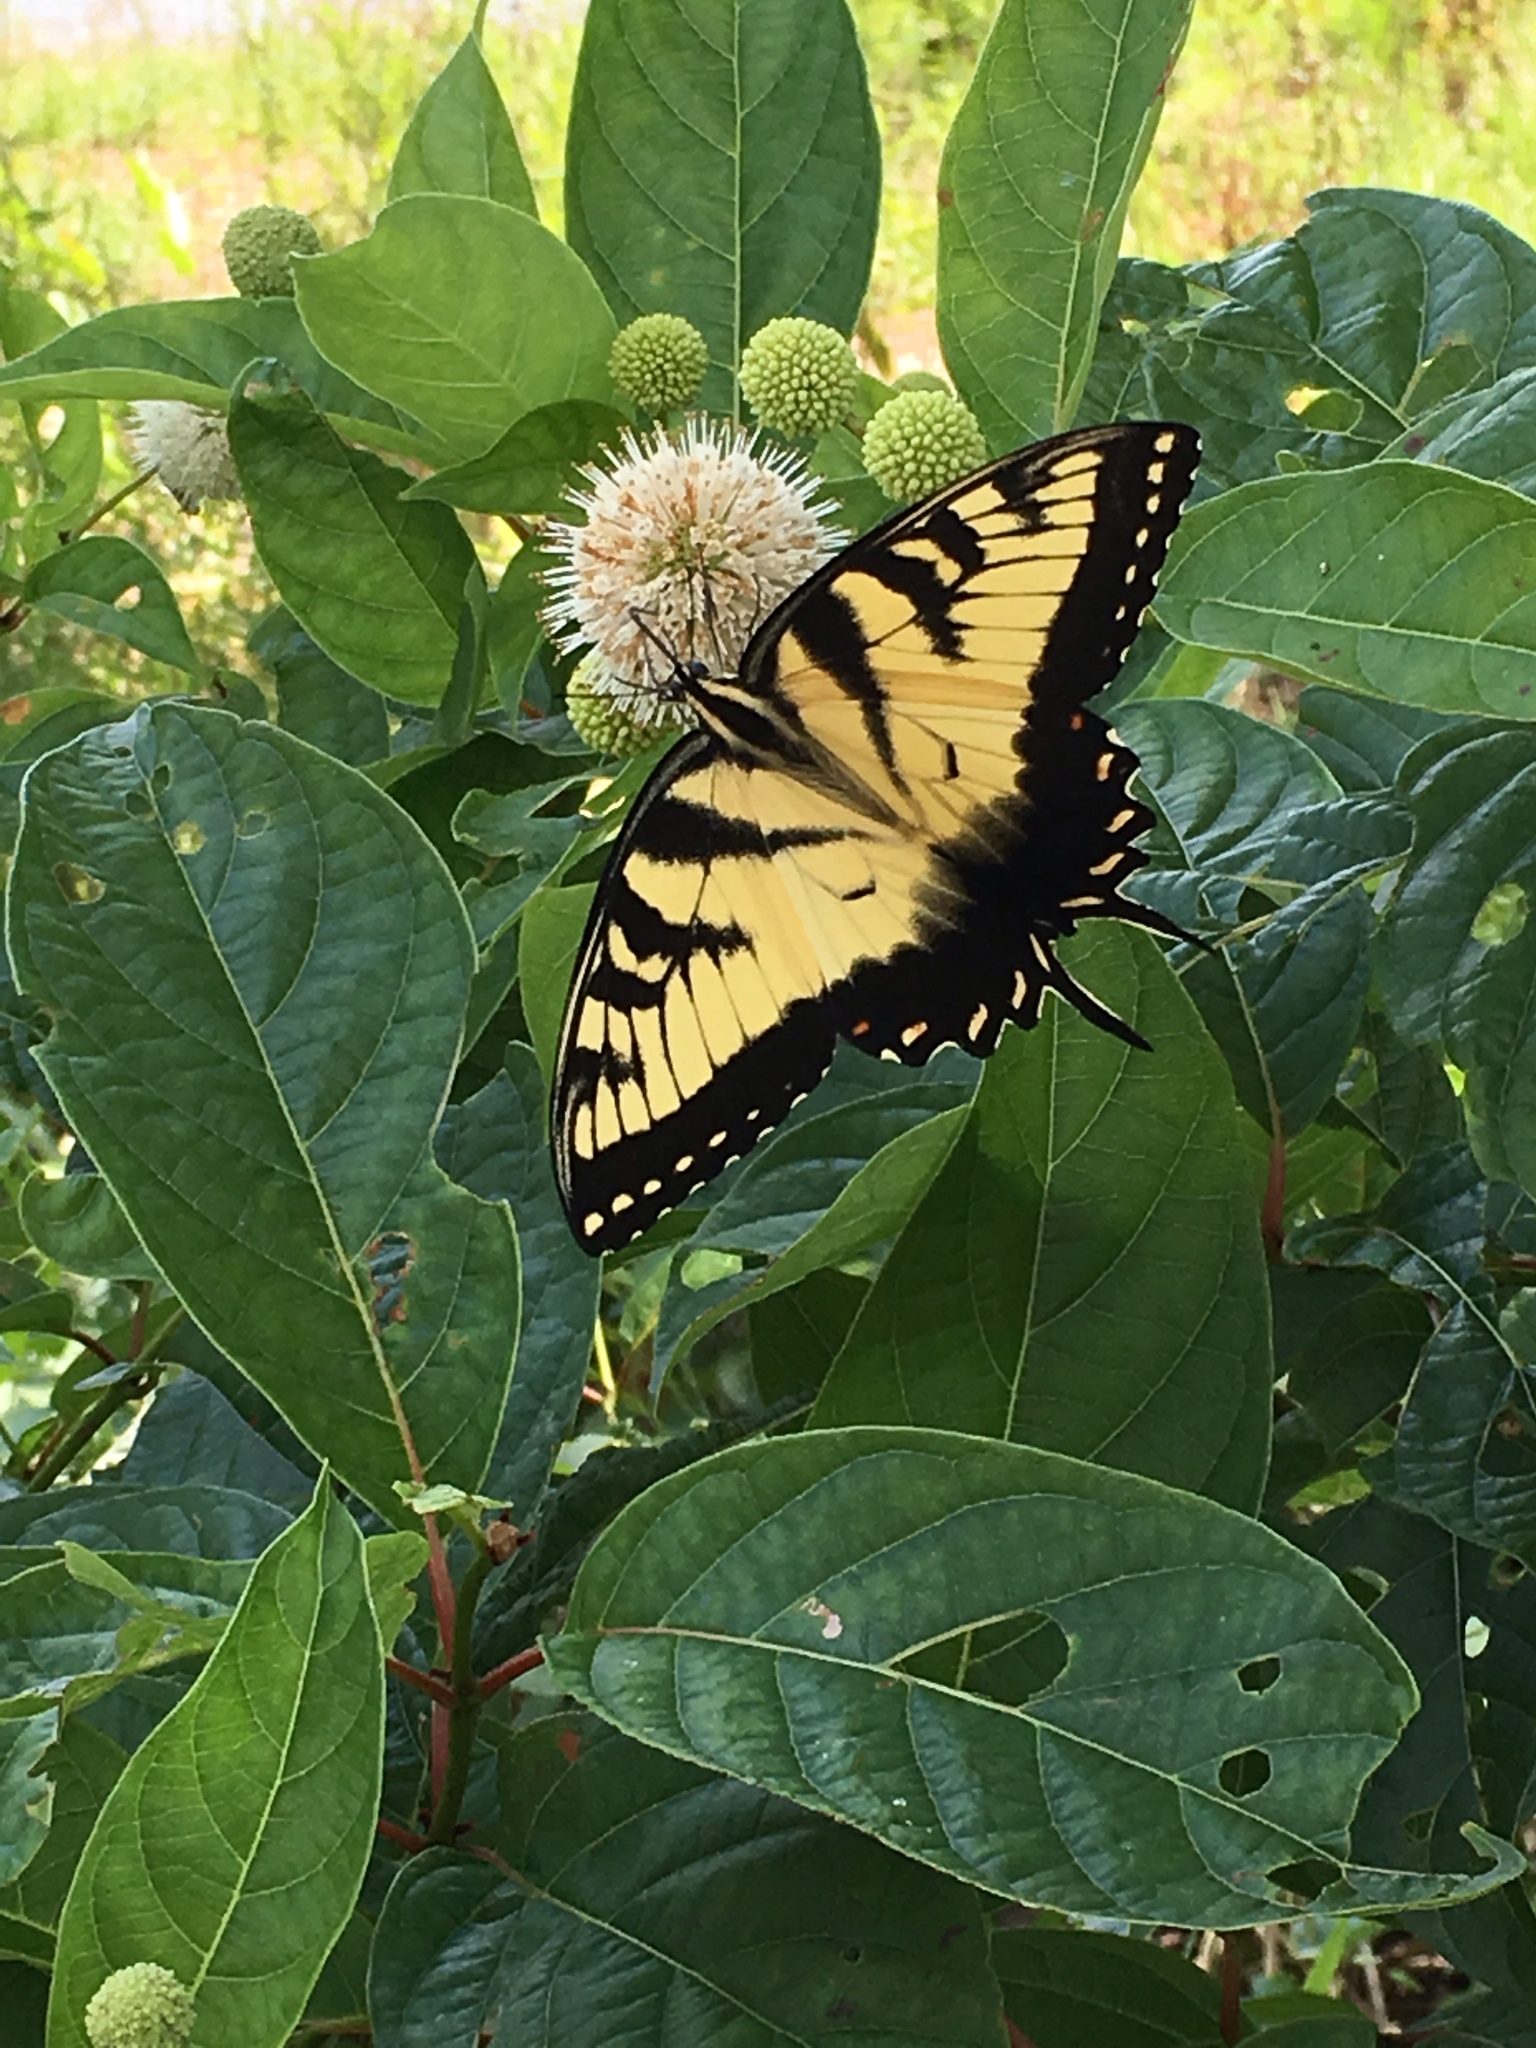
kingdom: Animalia
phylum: Arthropoda
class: Insecta
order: Lepidoptera
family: Papilionidae
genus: Papilio
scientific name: Papilio glaucus
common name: Tiger swallowtail
